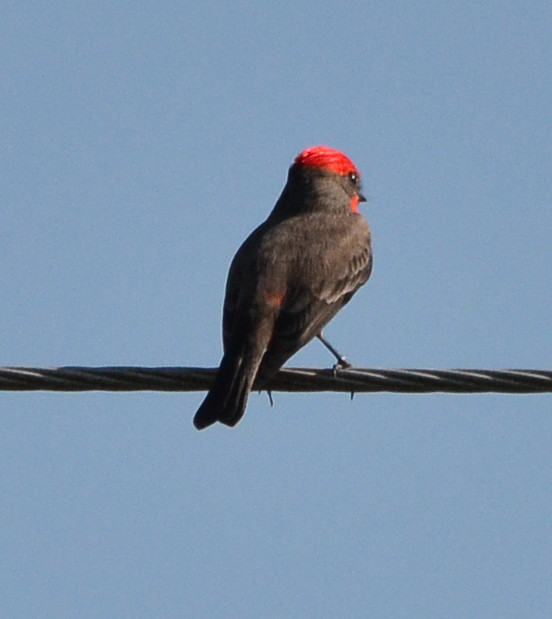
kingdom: Animalia
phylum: Chordata
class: Aves
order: Passeriformes
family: Tyrannidae
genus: Pyrocephalus
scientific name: Pyrocephalus rubinus
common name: Vermilion flycatcher
